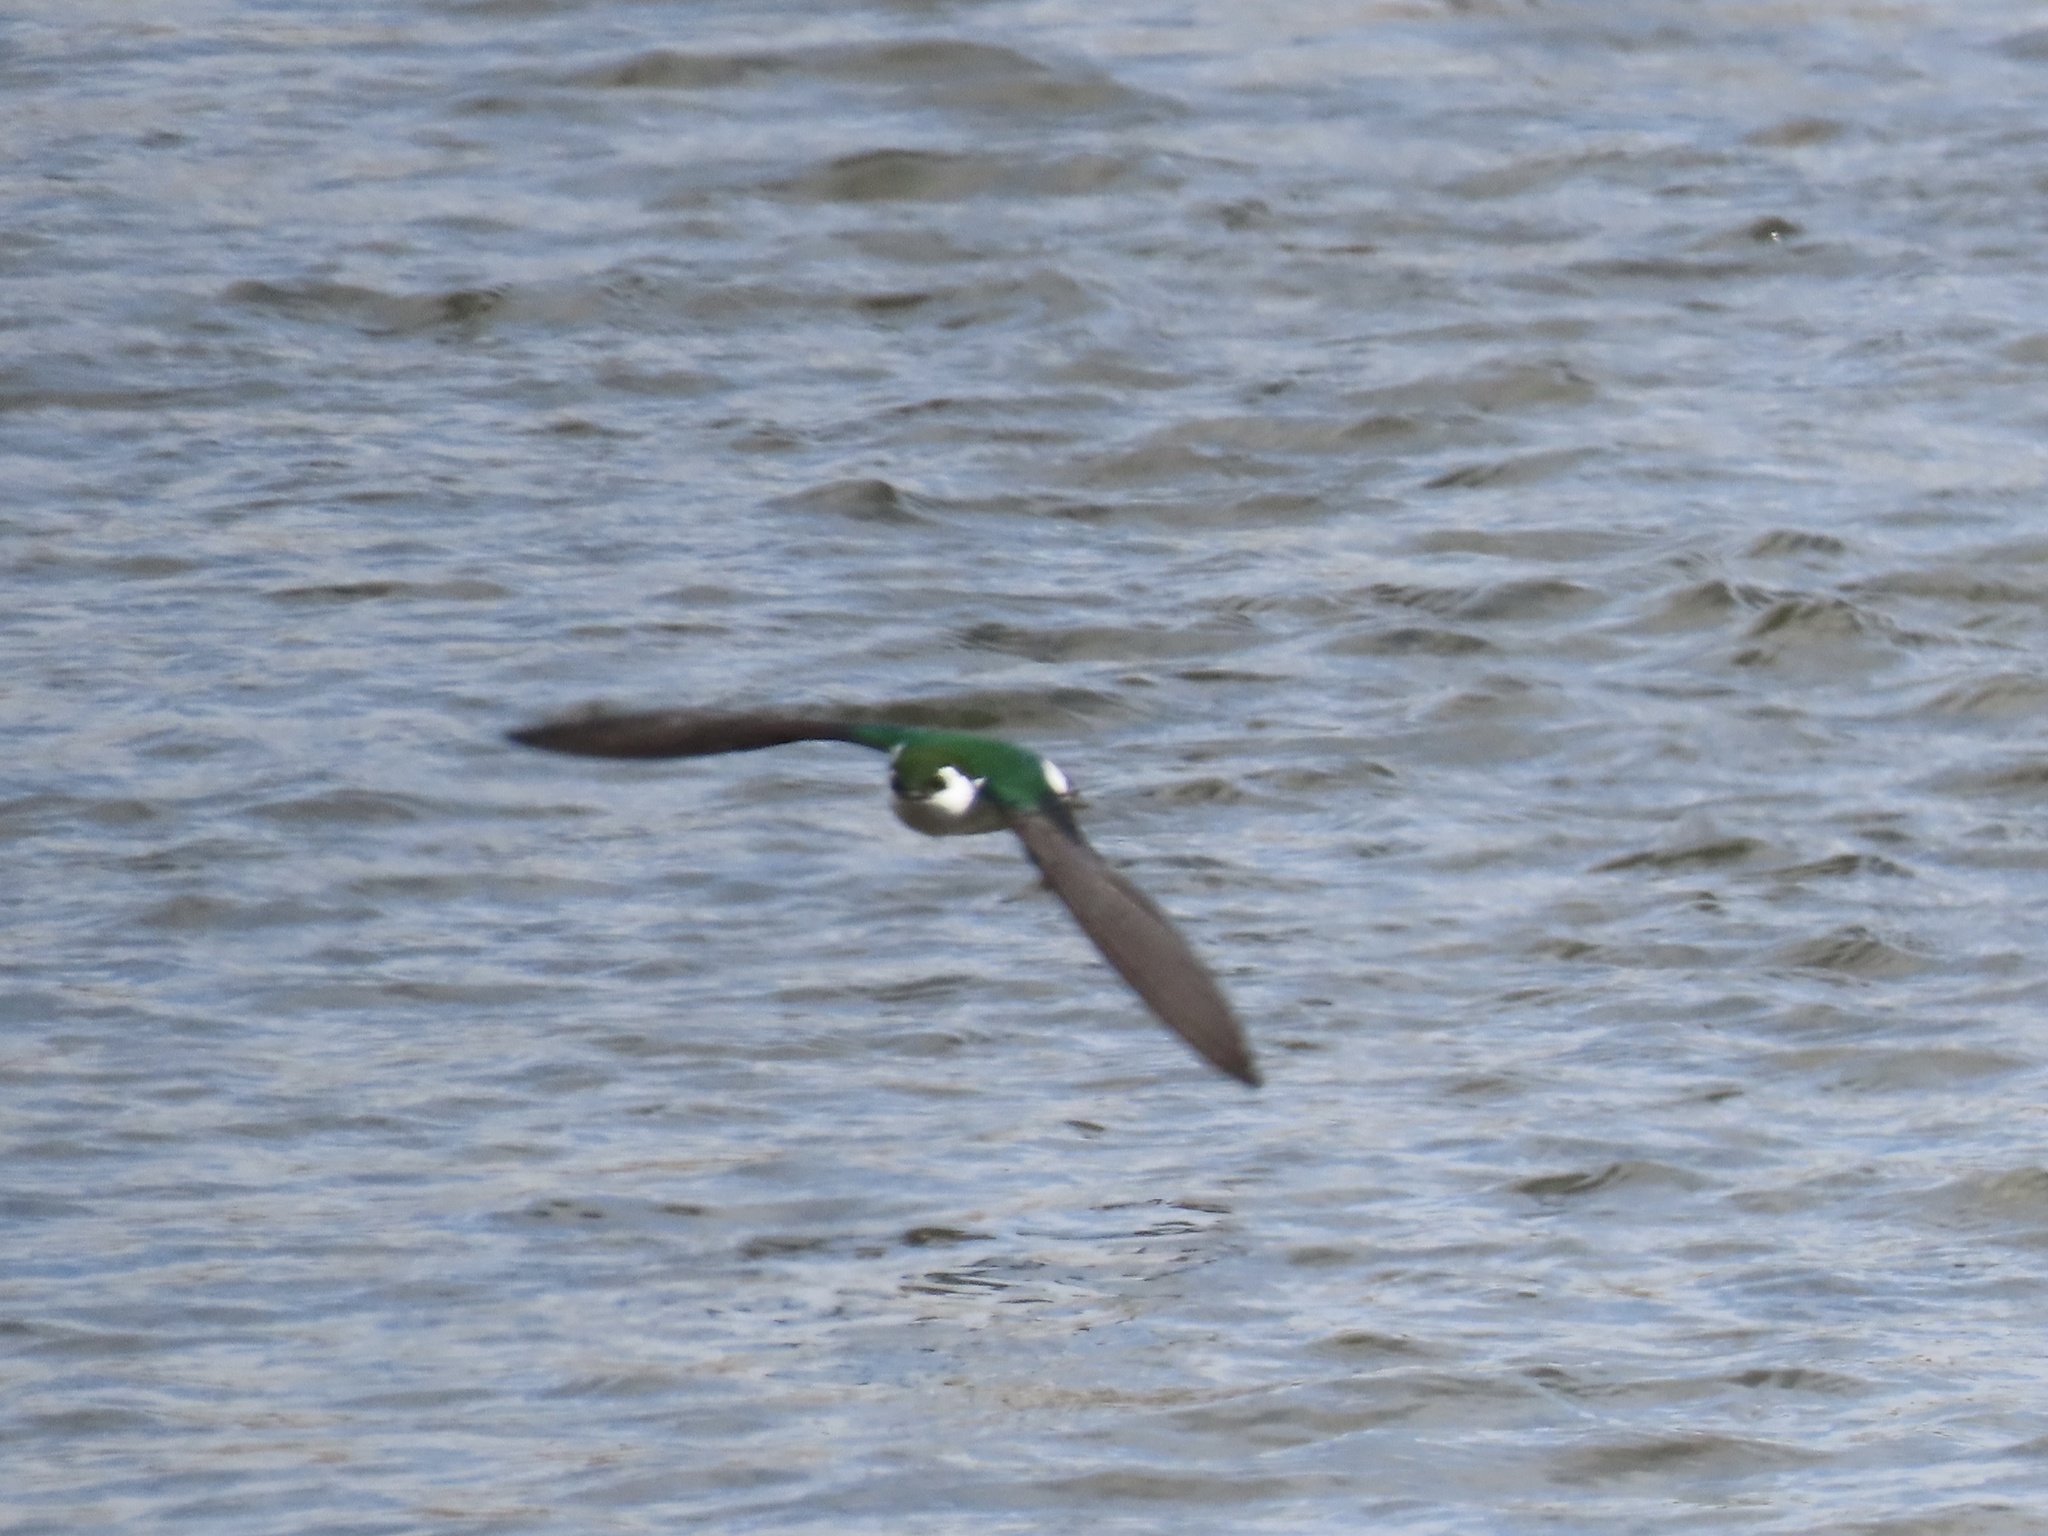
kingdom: Animalia
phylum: Chordata
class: Aves
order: Passeriformes
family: Hirundinidae
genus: Tachycineta
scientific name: Tachycineta thalassina
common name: Violet-green swallow
